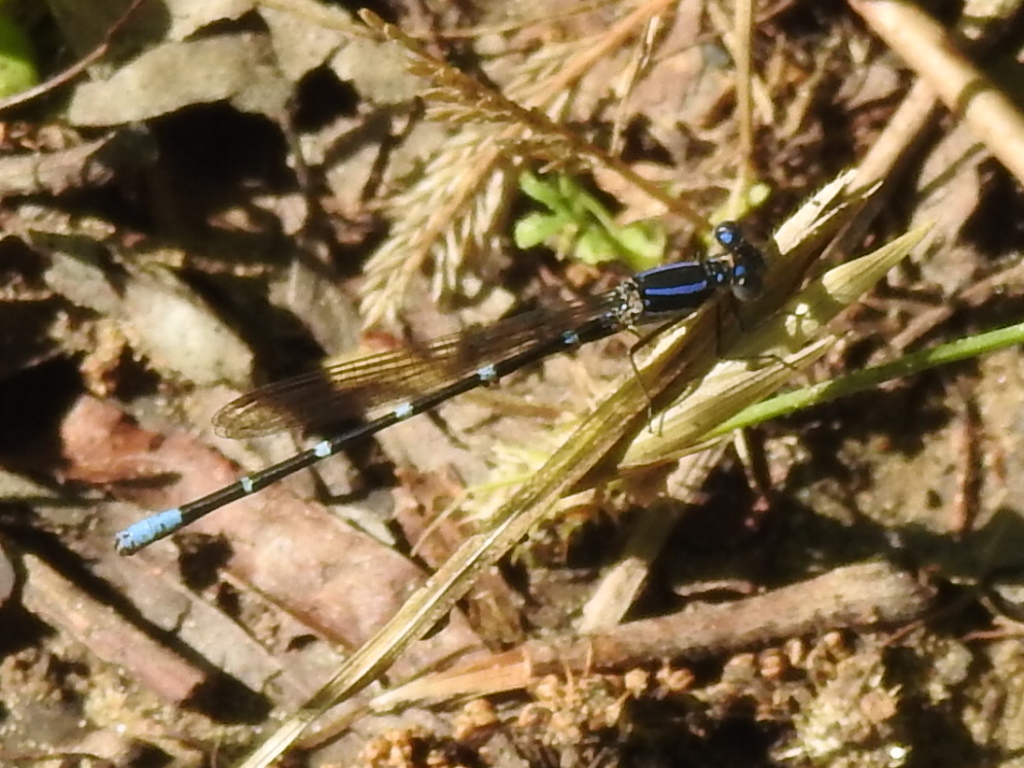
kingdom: Animalia
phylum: Arthropoda
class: Insecta
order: Odonata
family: Coenagrionidae
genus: Argia
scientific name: Argia sedula
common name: Blue-ringed dancer
